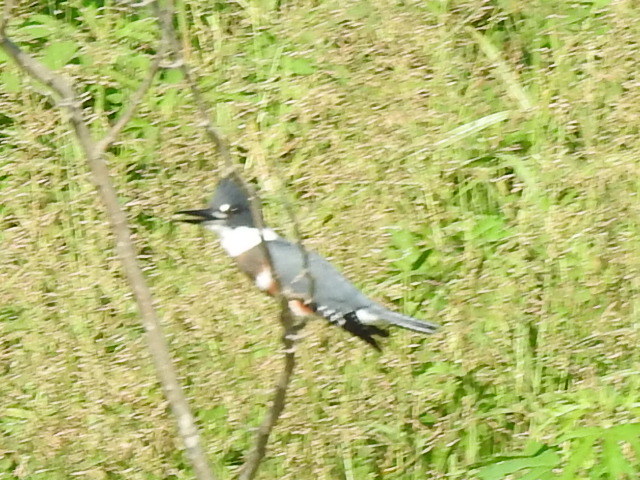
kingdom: Animalia
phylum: Chordata
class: Aves
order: Coraciiformes
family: Alcedinidae
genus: Megaceryle
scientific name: Megaceryle alcyon
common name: Belted kingfisher
